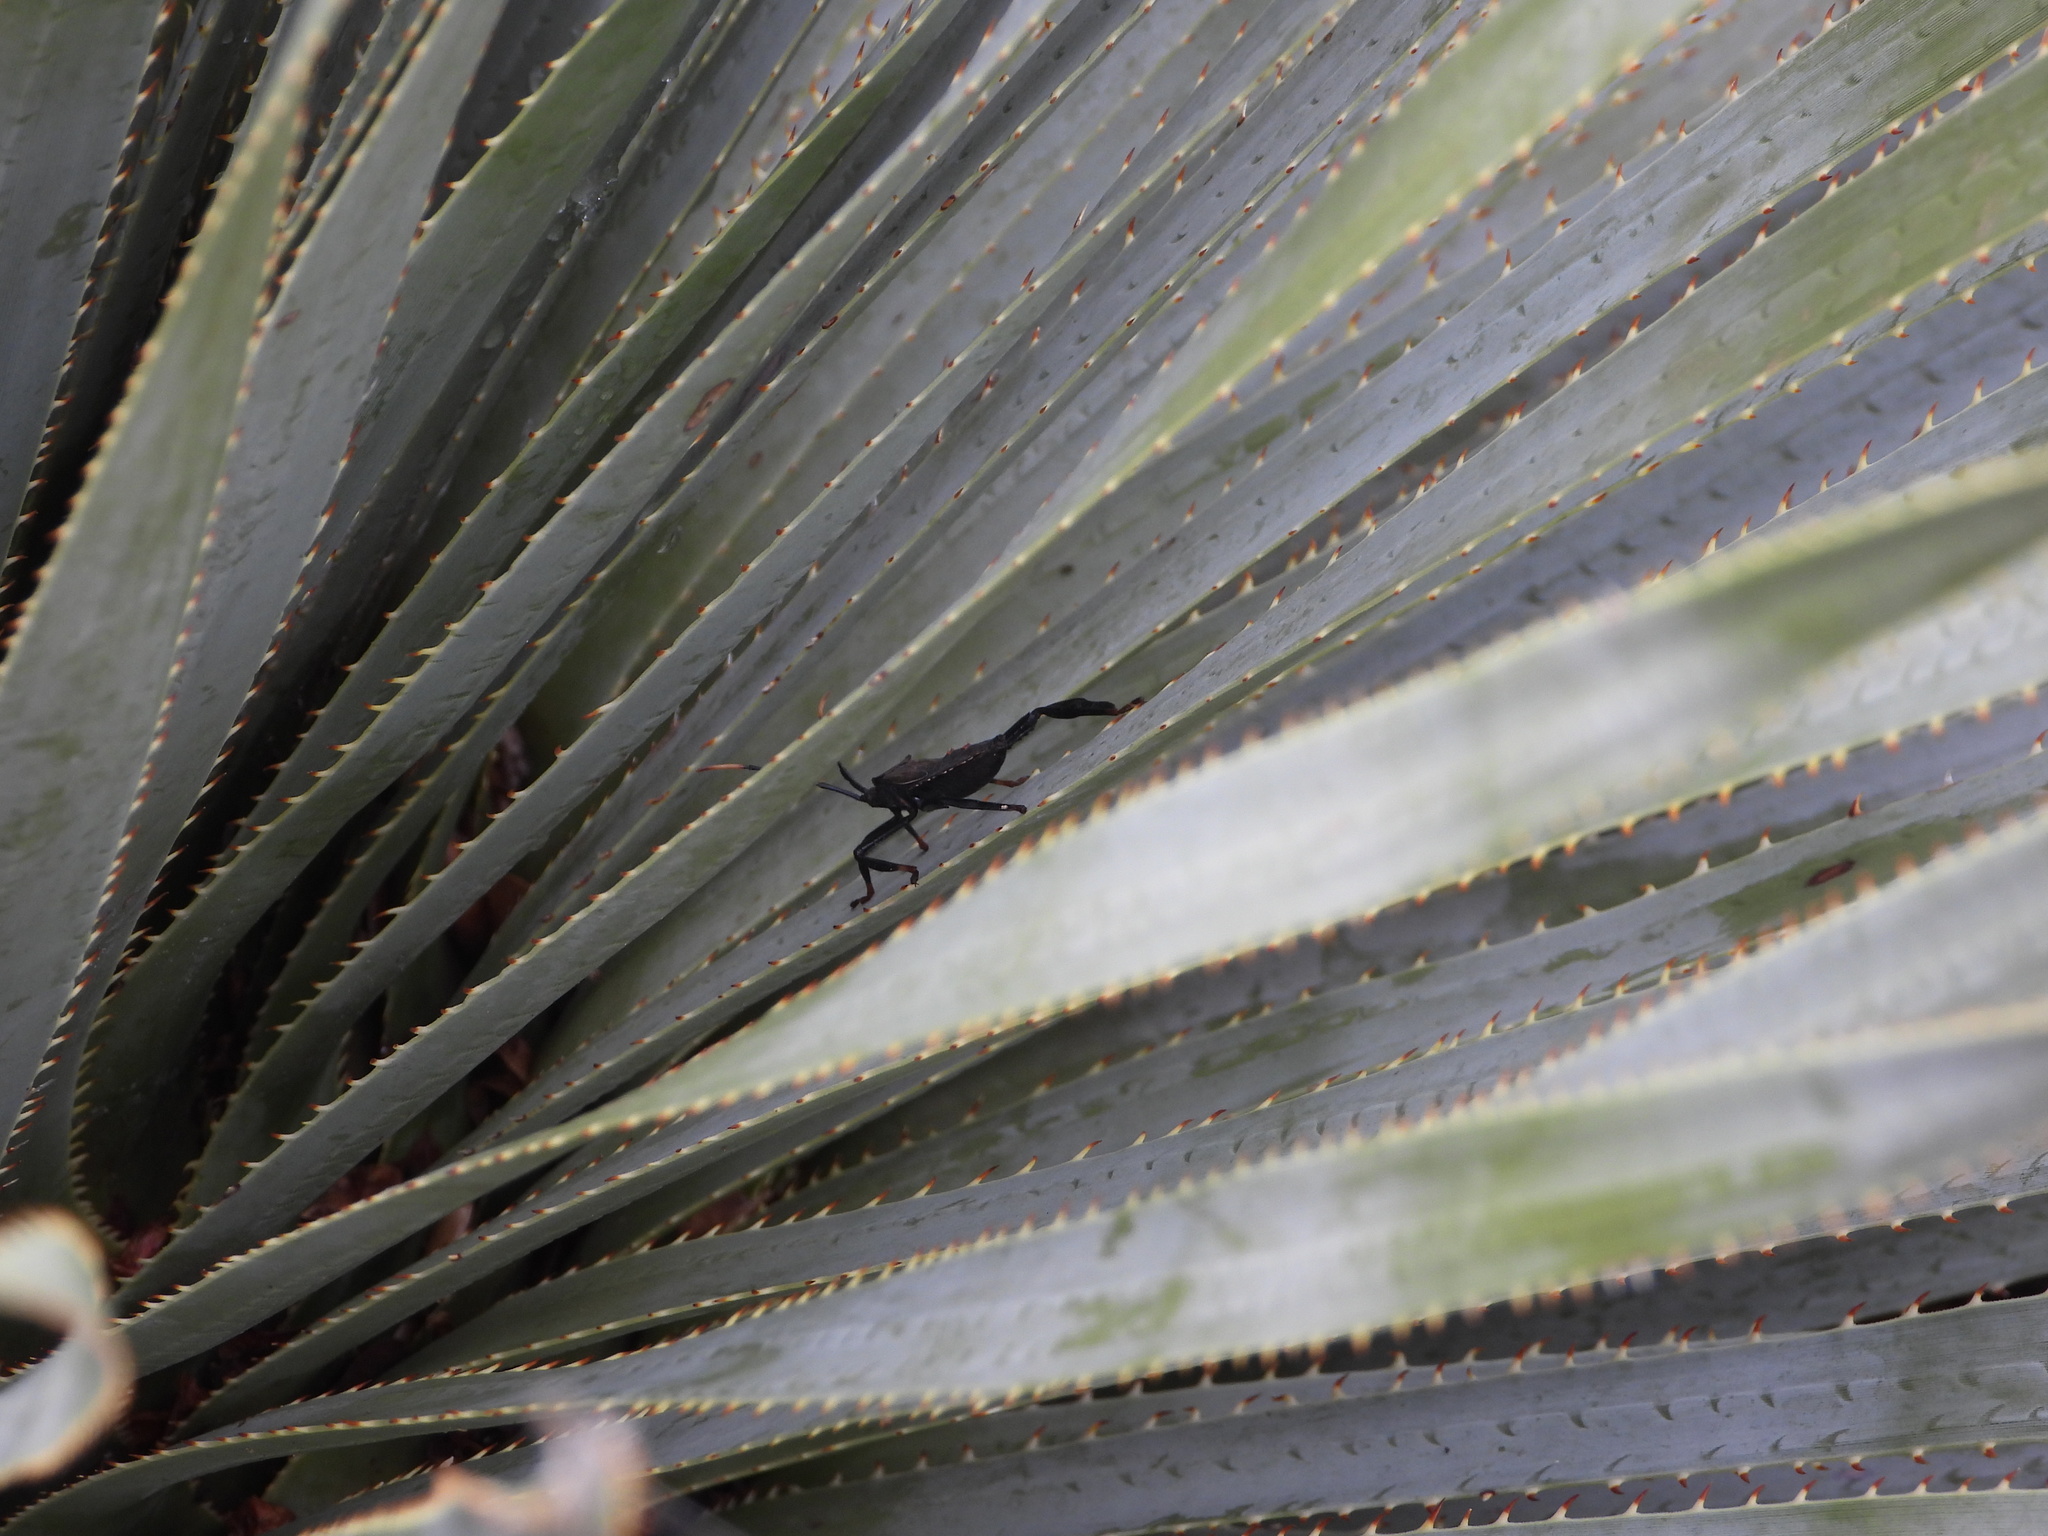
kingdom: Animalia
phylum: Arthropoda
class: Insecta
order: Hemiptera
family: Coreidae
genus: Acanthocephala
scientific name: Acanthocephala thomasi
